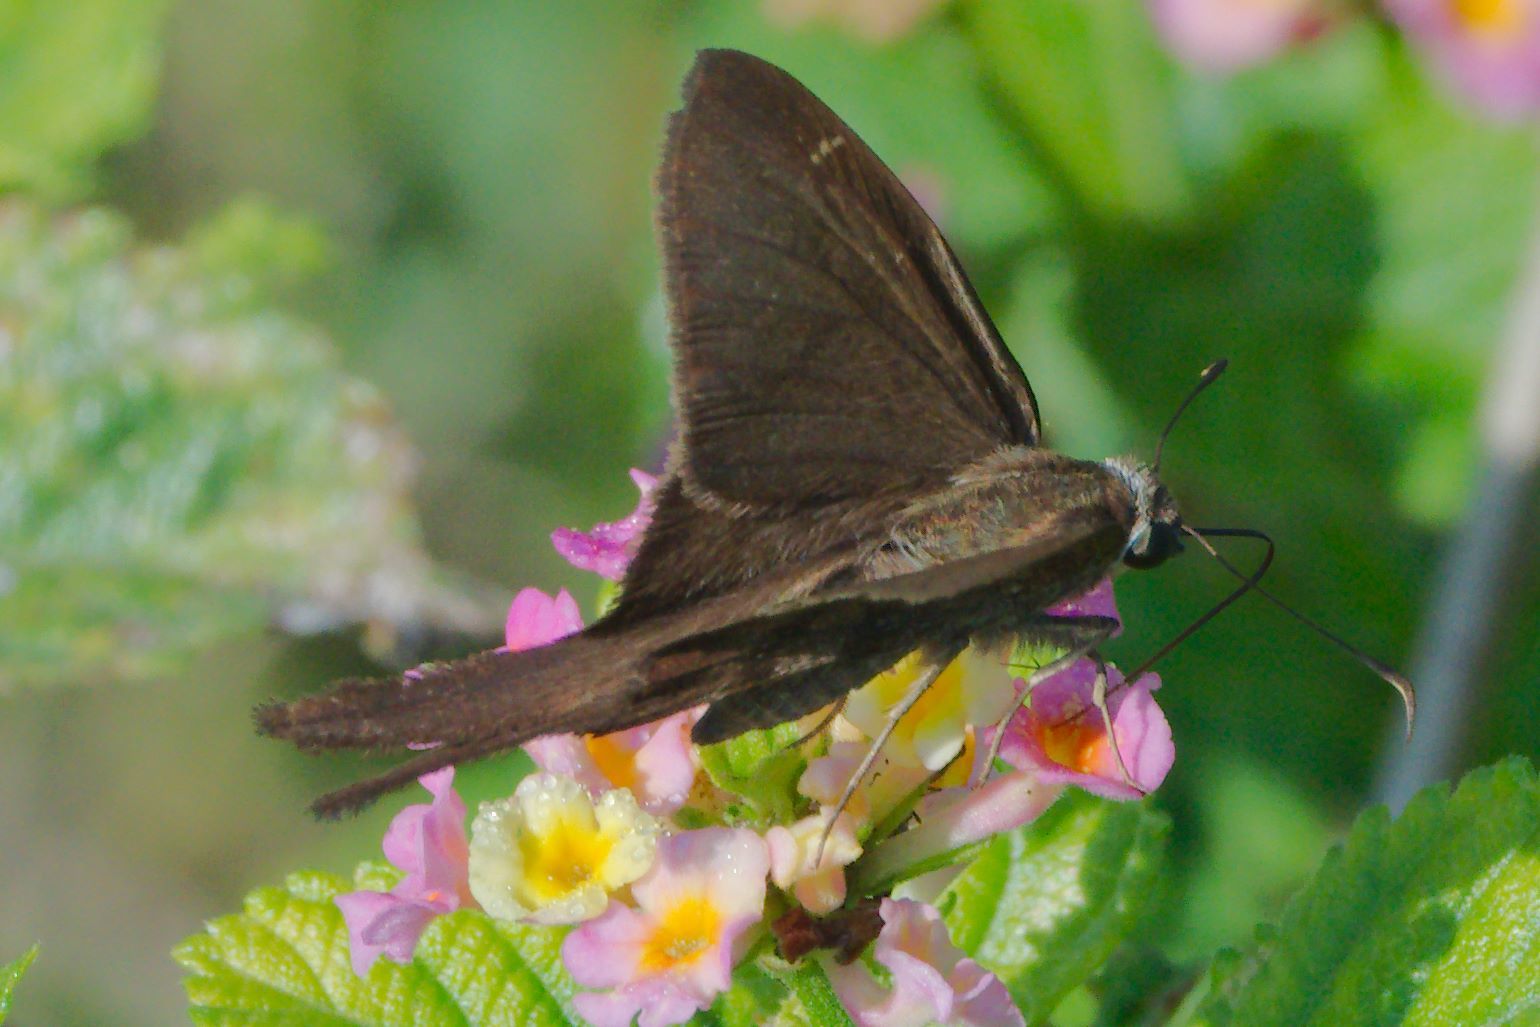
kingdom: Animalia
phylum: Arthropoda
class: Insecta
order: Lepidoptera
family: Hesperiidae
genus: Urbanus
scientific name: Urbanus procne
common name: Brown longtail
